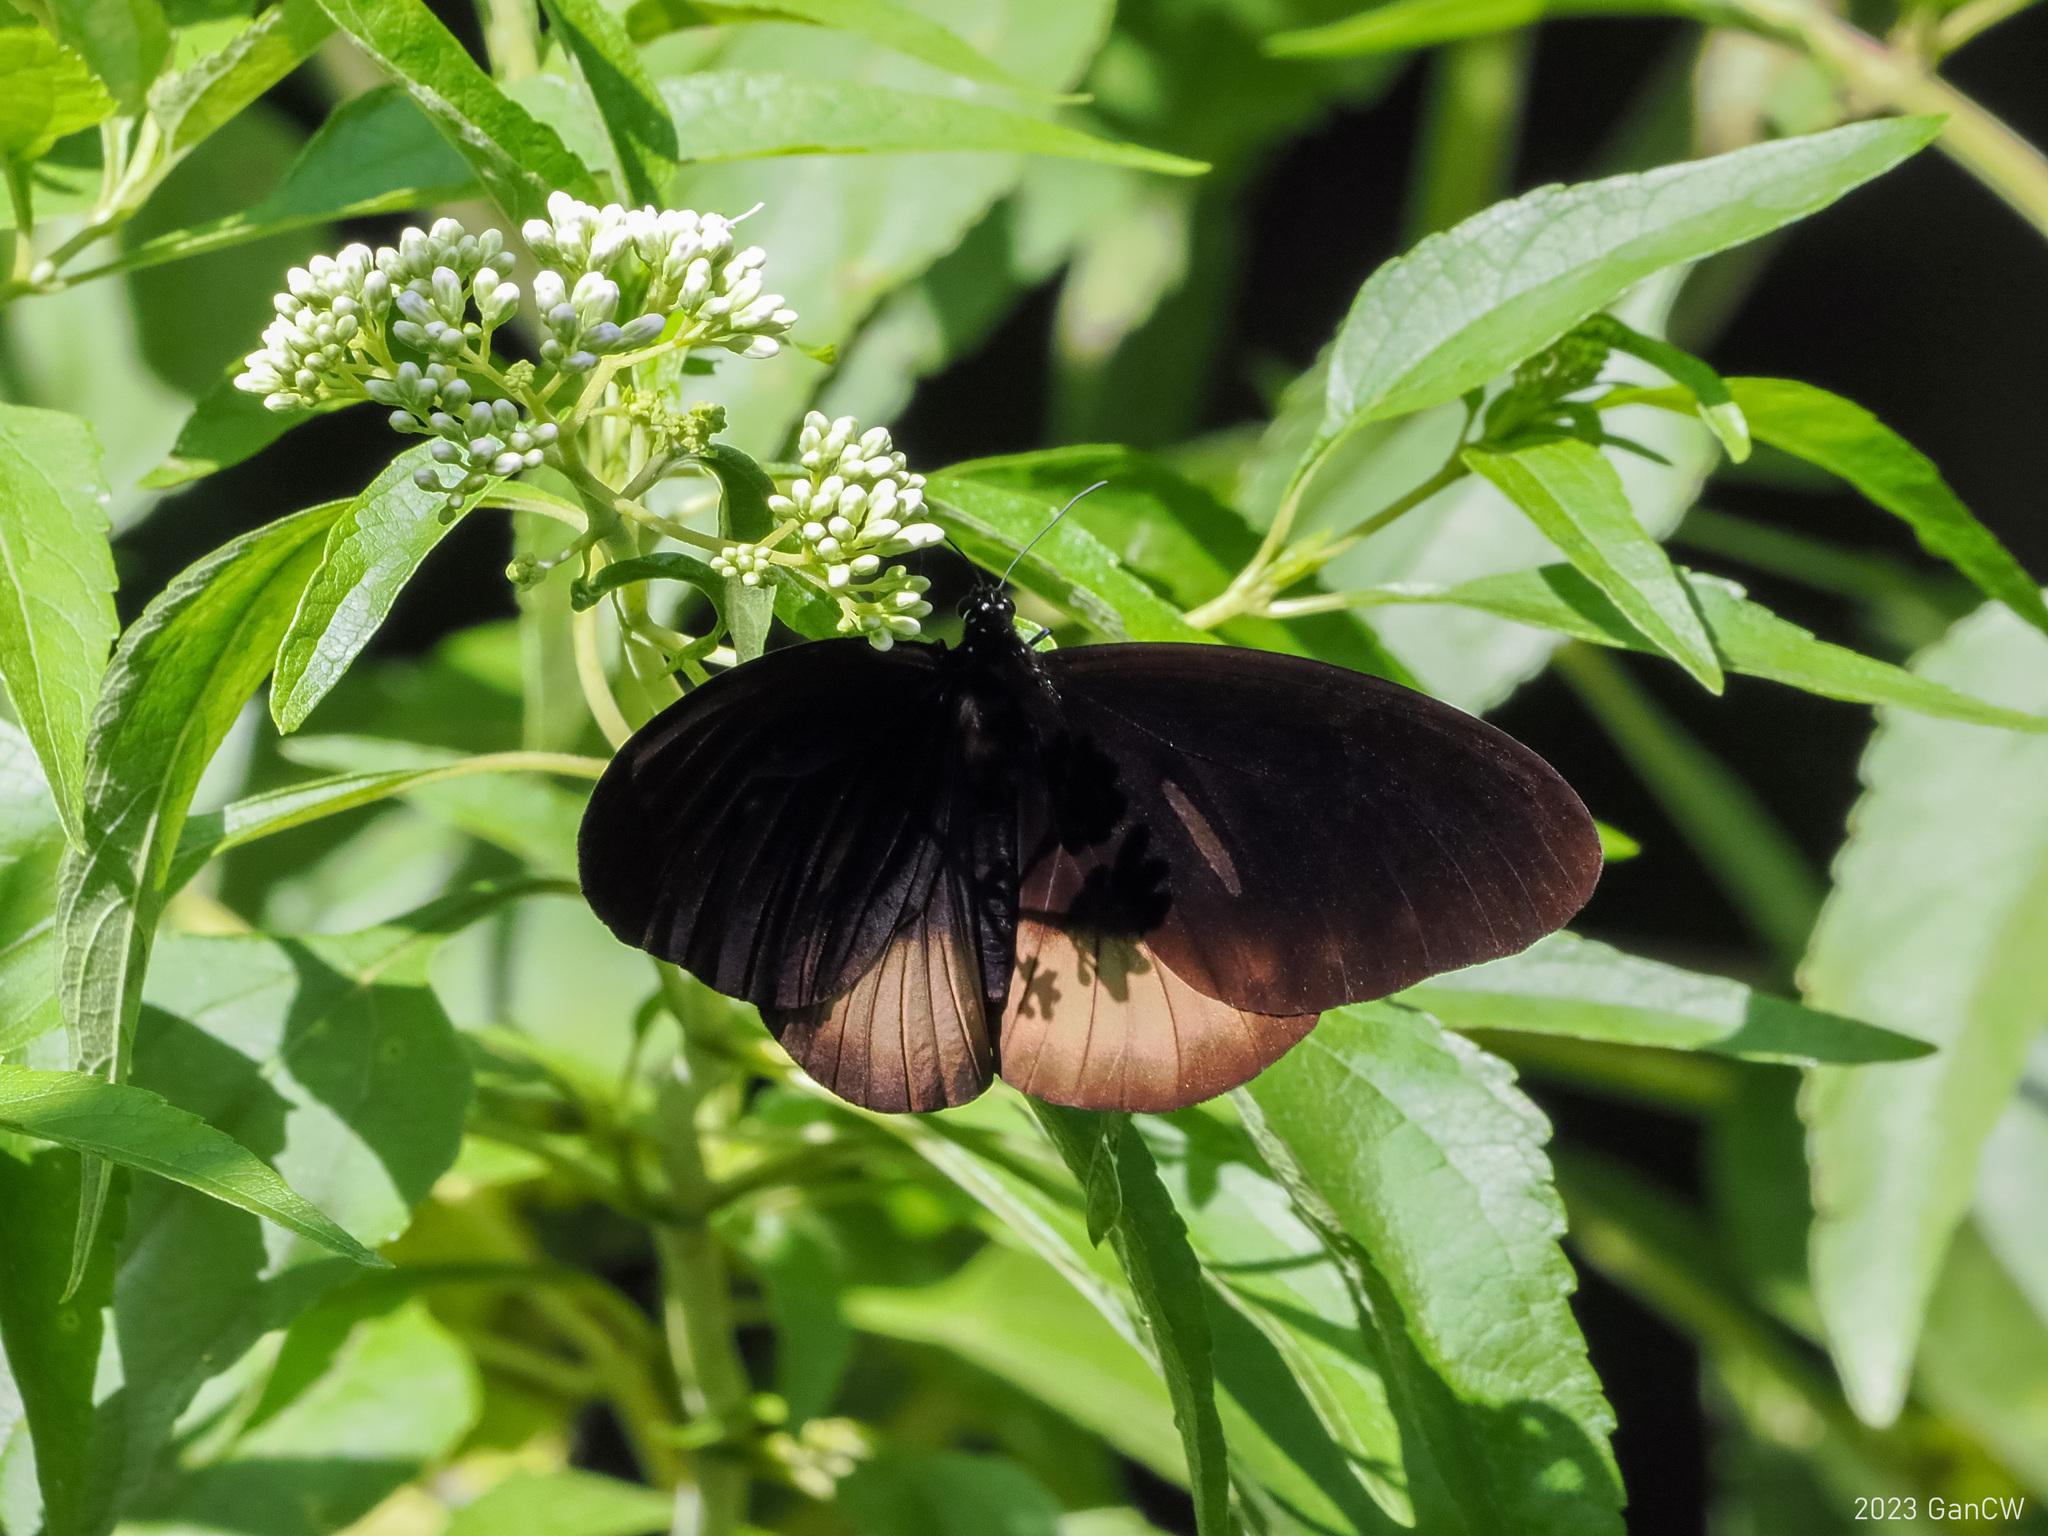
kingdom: Animalia
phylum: Arthropoda
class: Insecta
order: Lepidoptera
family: Nymphalidae
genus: Euploea
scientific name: Euploea magou
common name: Magou
